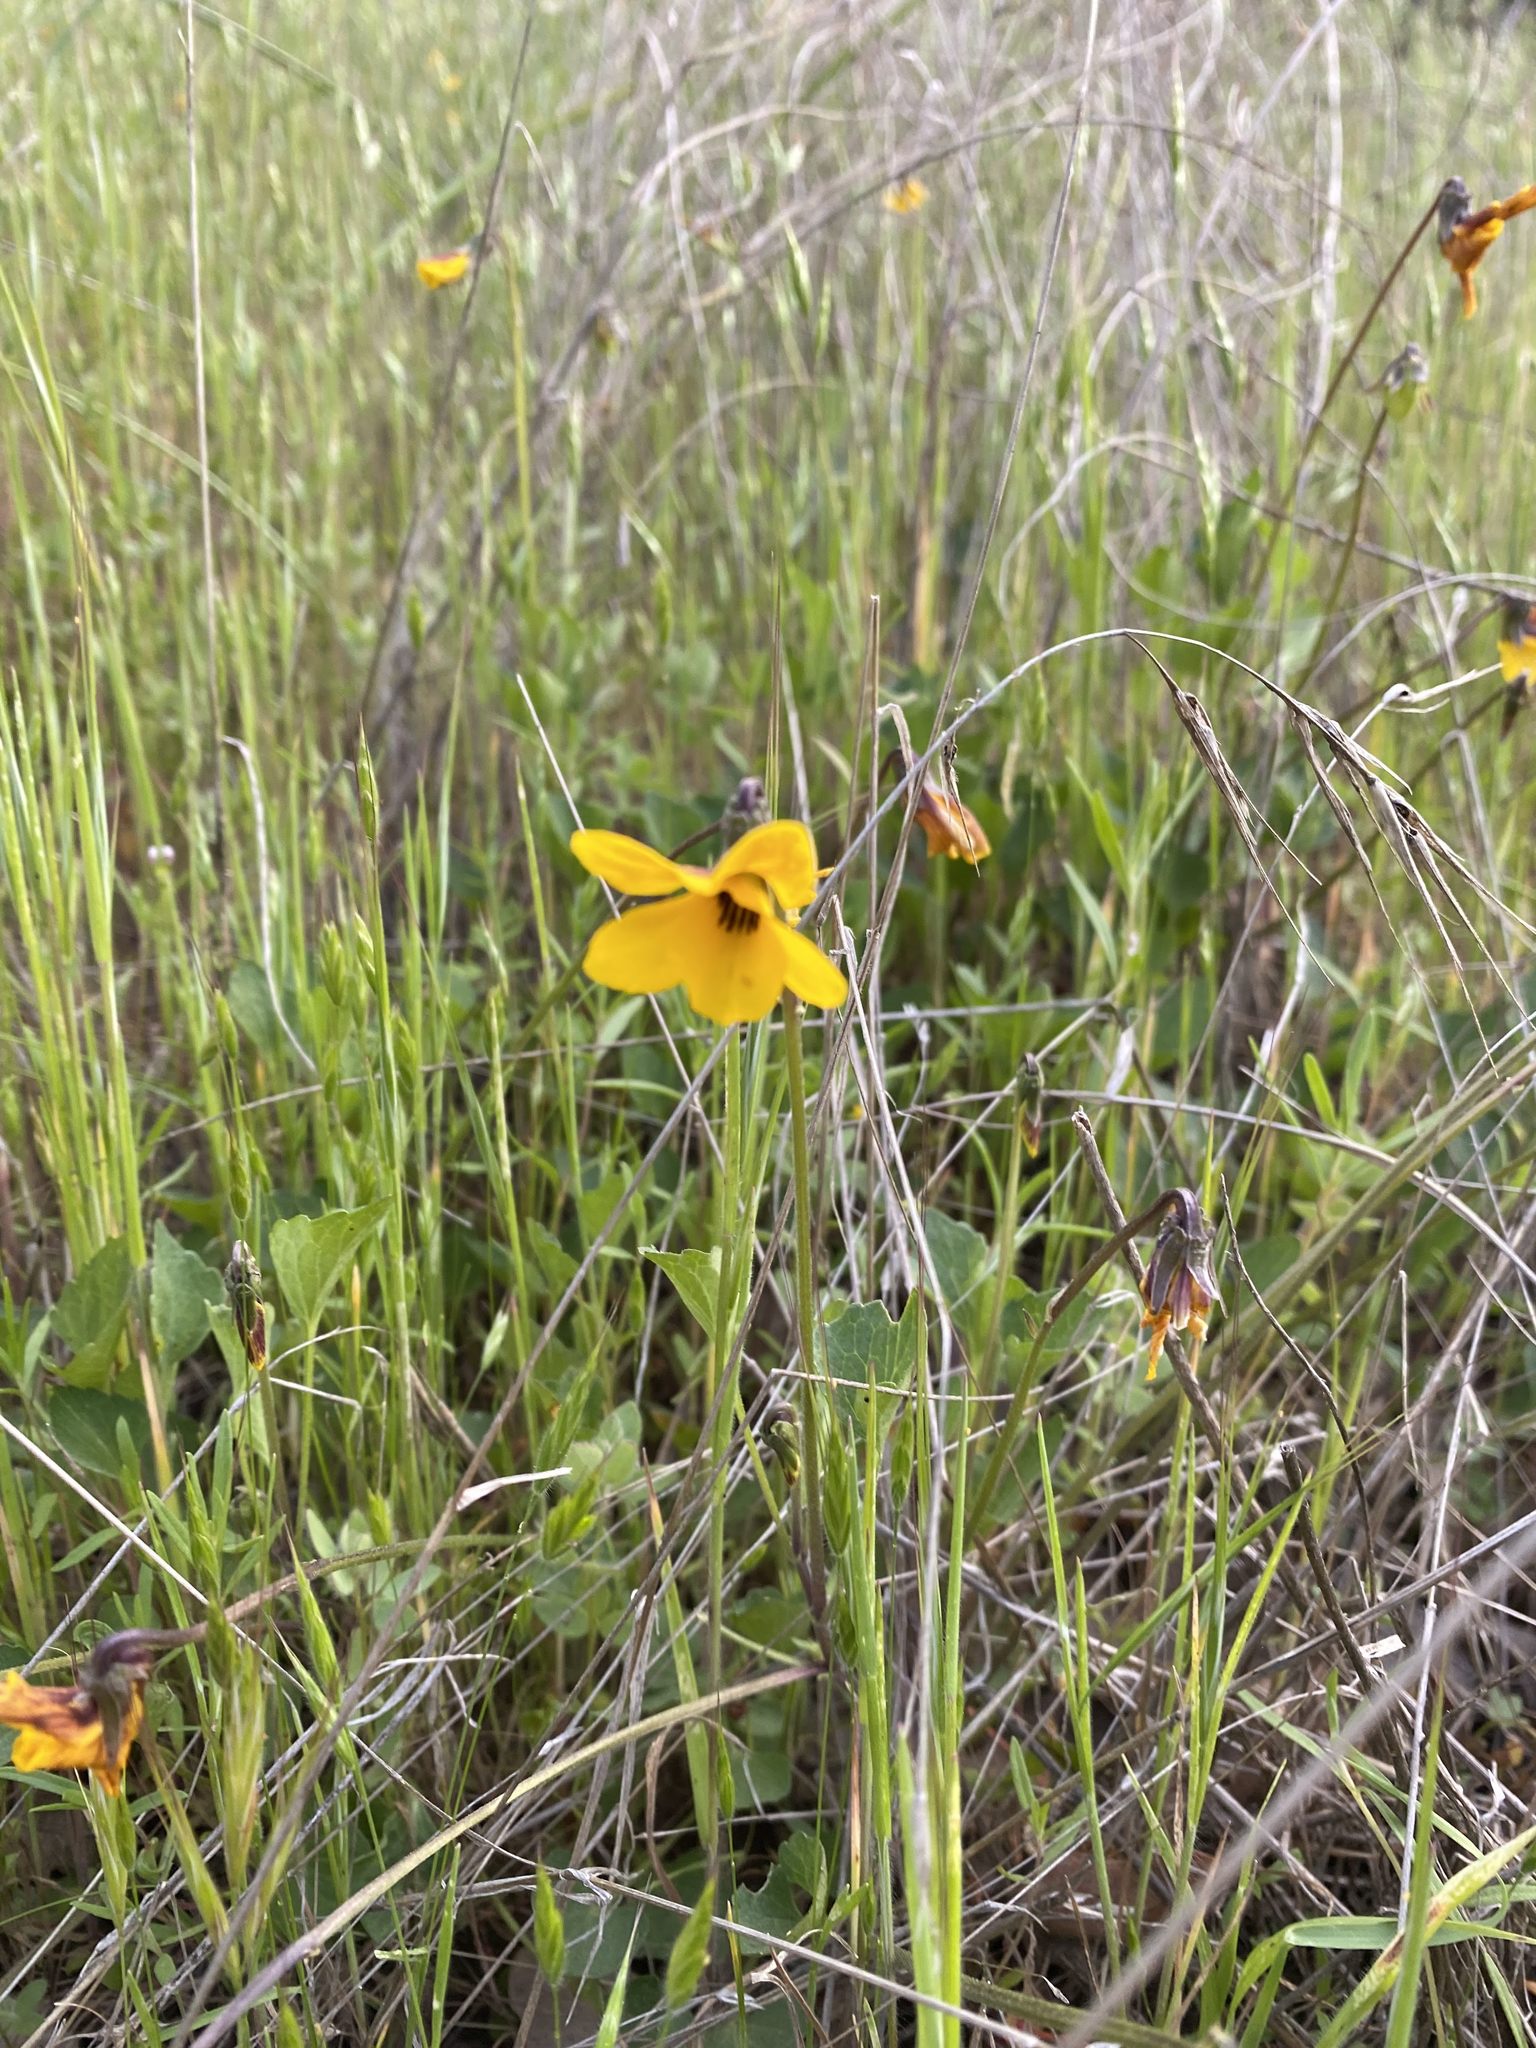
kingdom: Plantae
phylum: Tracheophyta
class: Magnoliopsida
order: Malpighiales
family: Violaceae
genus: Viola
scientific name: Viola pedunculata
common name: California golden violet
